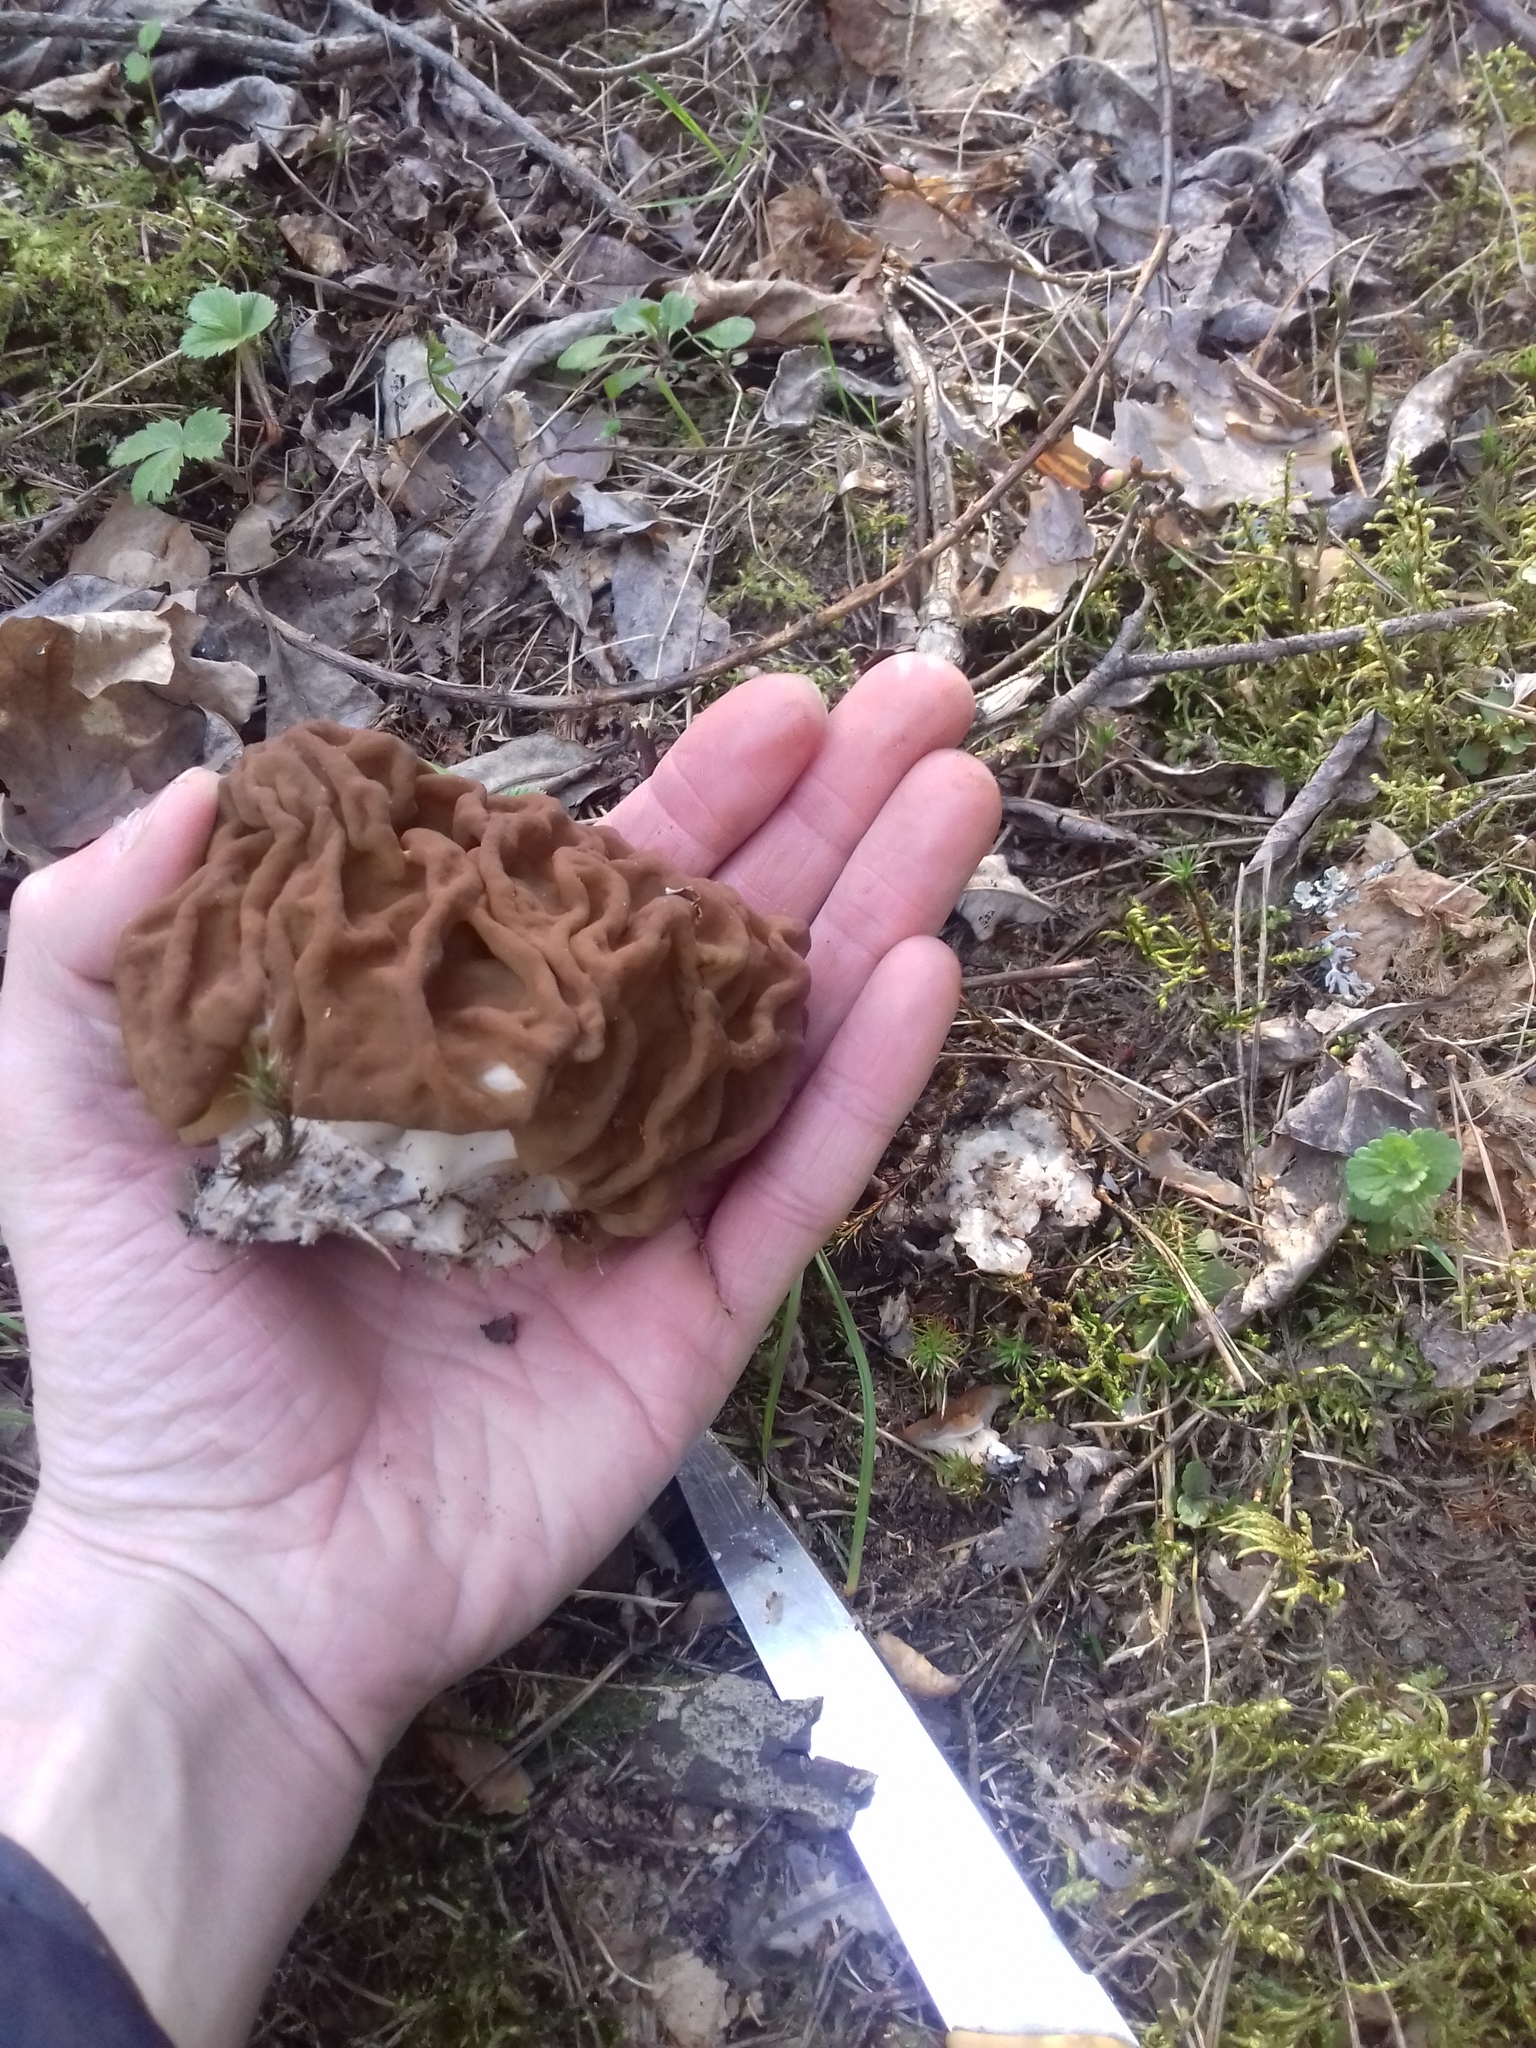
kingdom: Fungi
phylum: Ascomycota
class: Pezizomycetes
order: Pezizales
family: Discinaceae
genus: Gyromitra
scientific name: Gyromitra gigas
